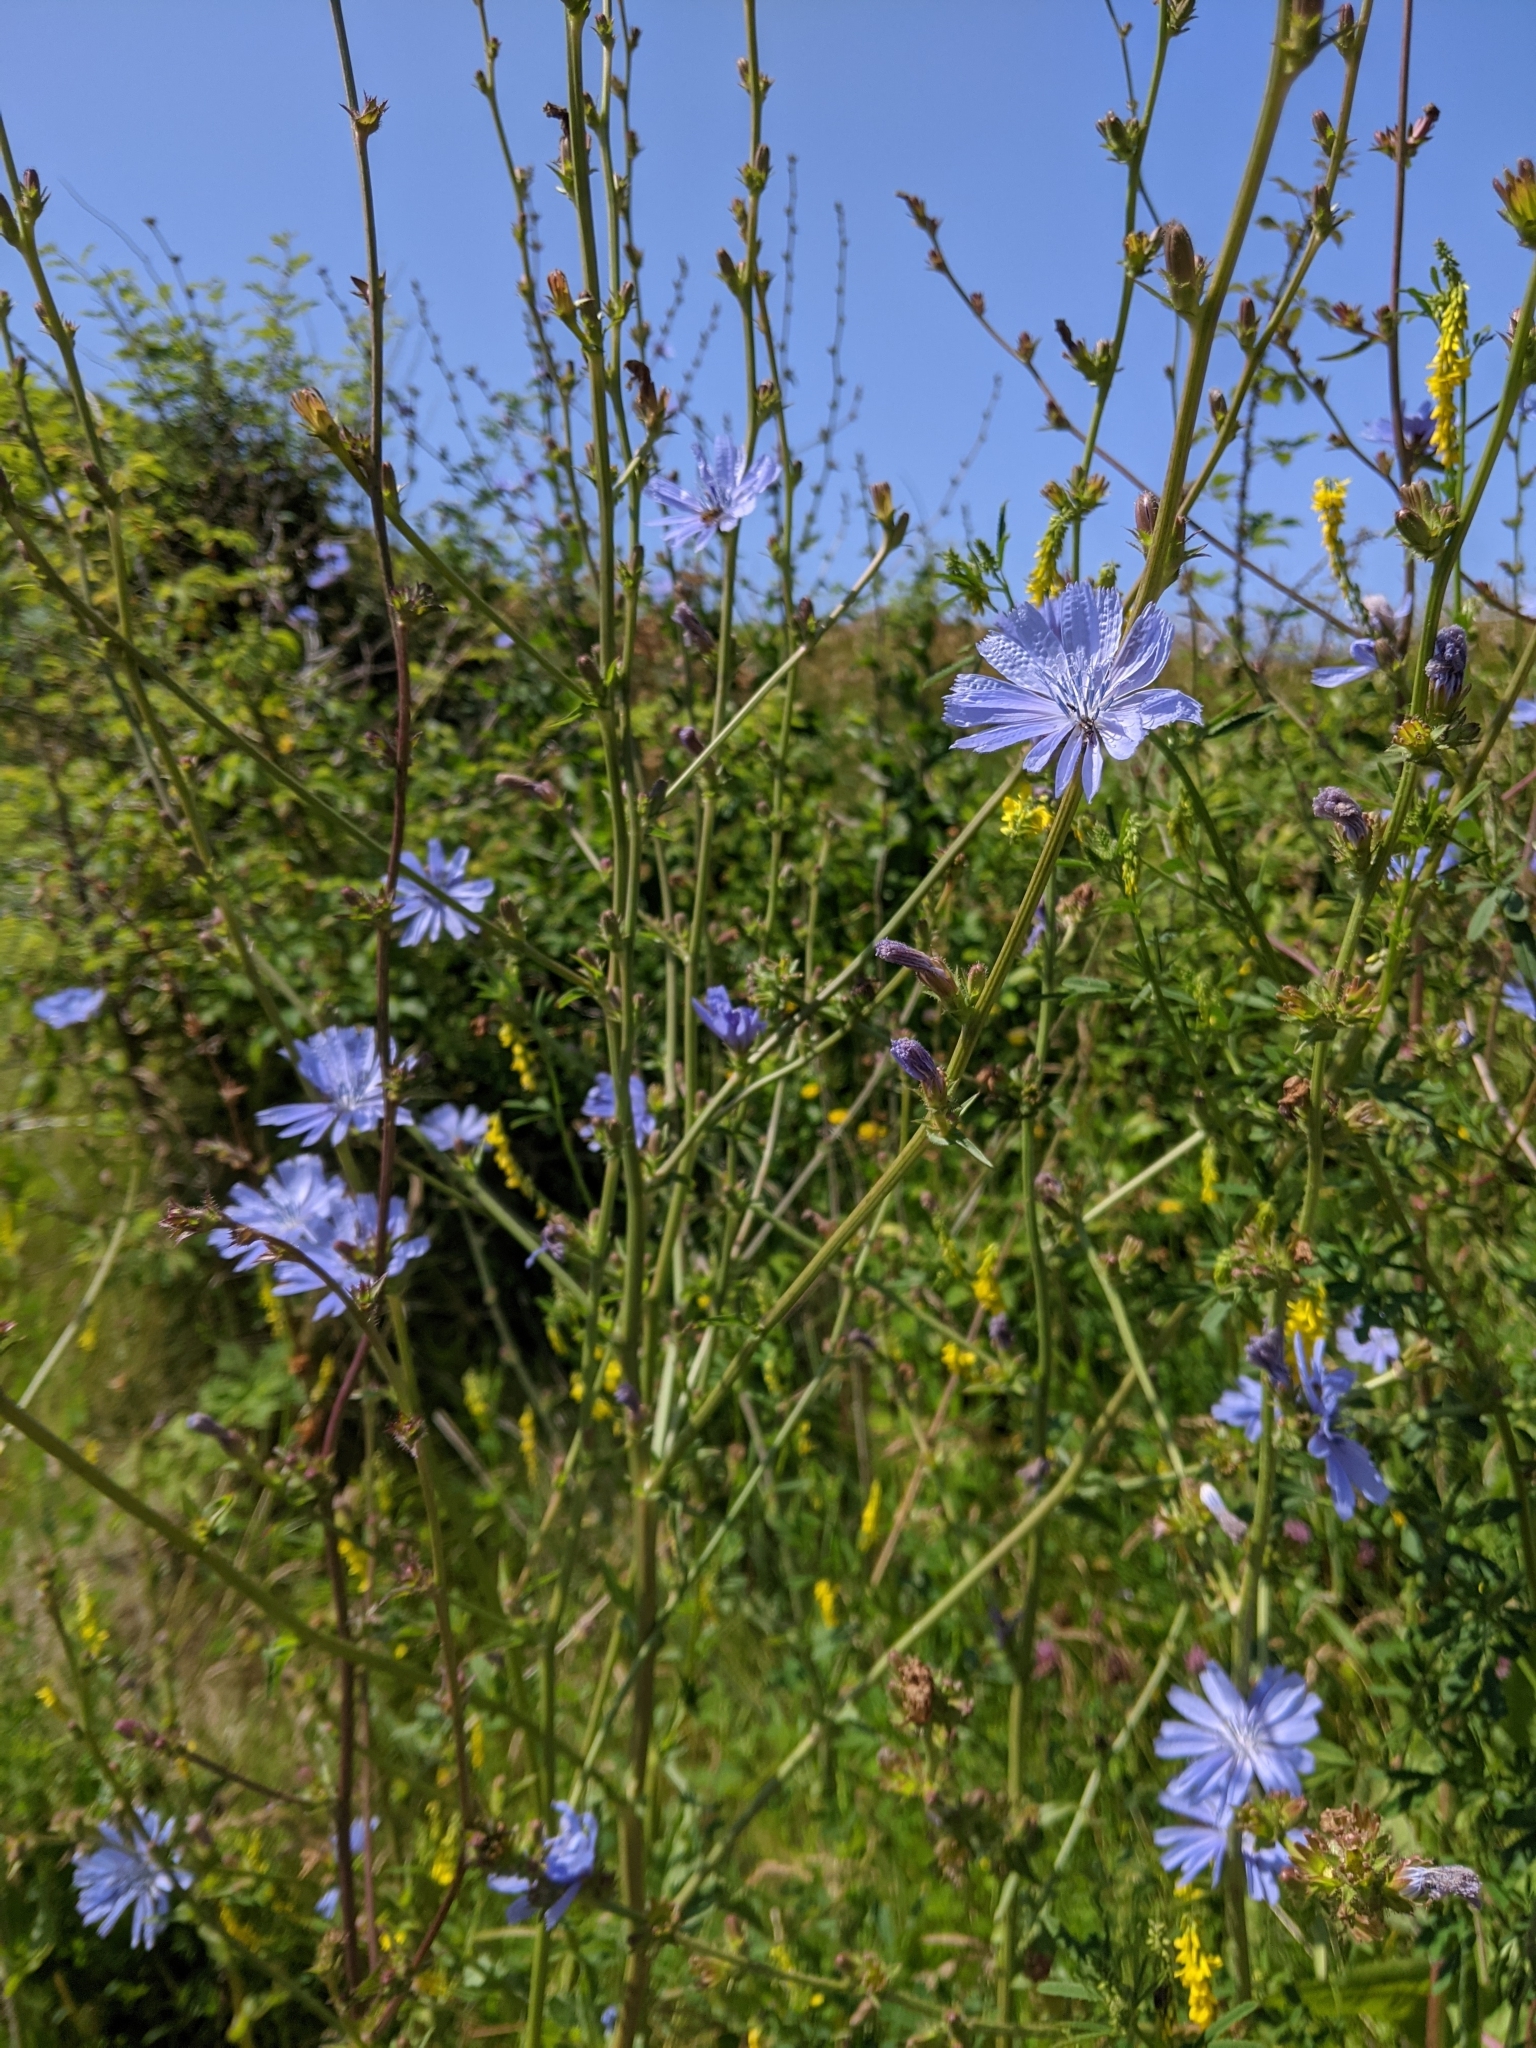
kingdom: Plantae
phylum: Tracheophyta
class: Magnoliopsida
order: Asterales
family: Asteraceae
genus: Cichorium
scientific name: Cichorium intybus
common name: Chicory
